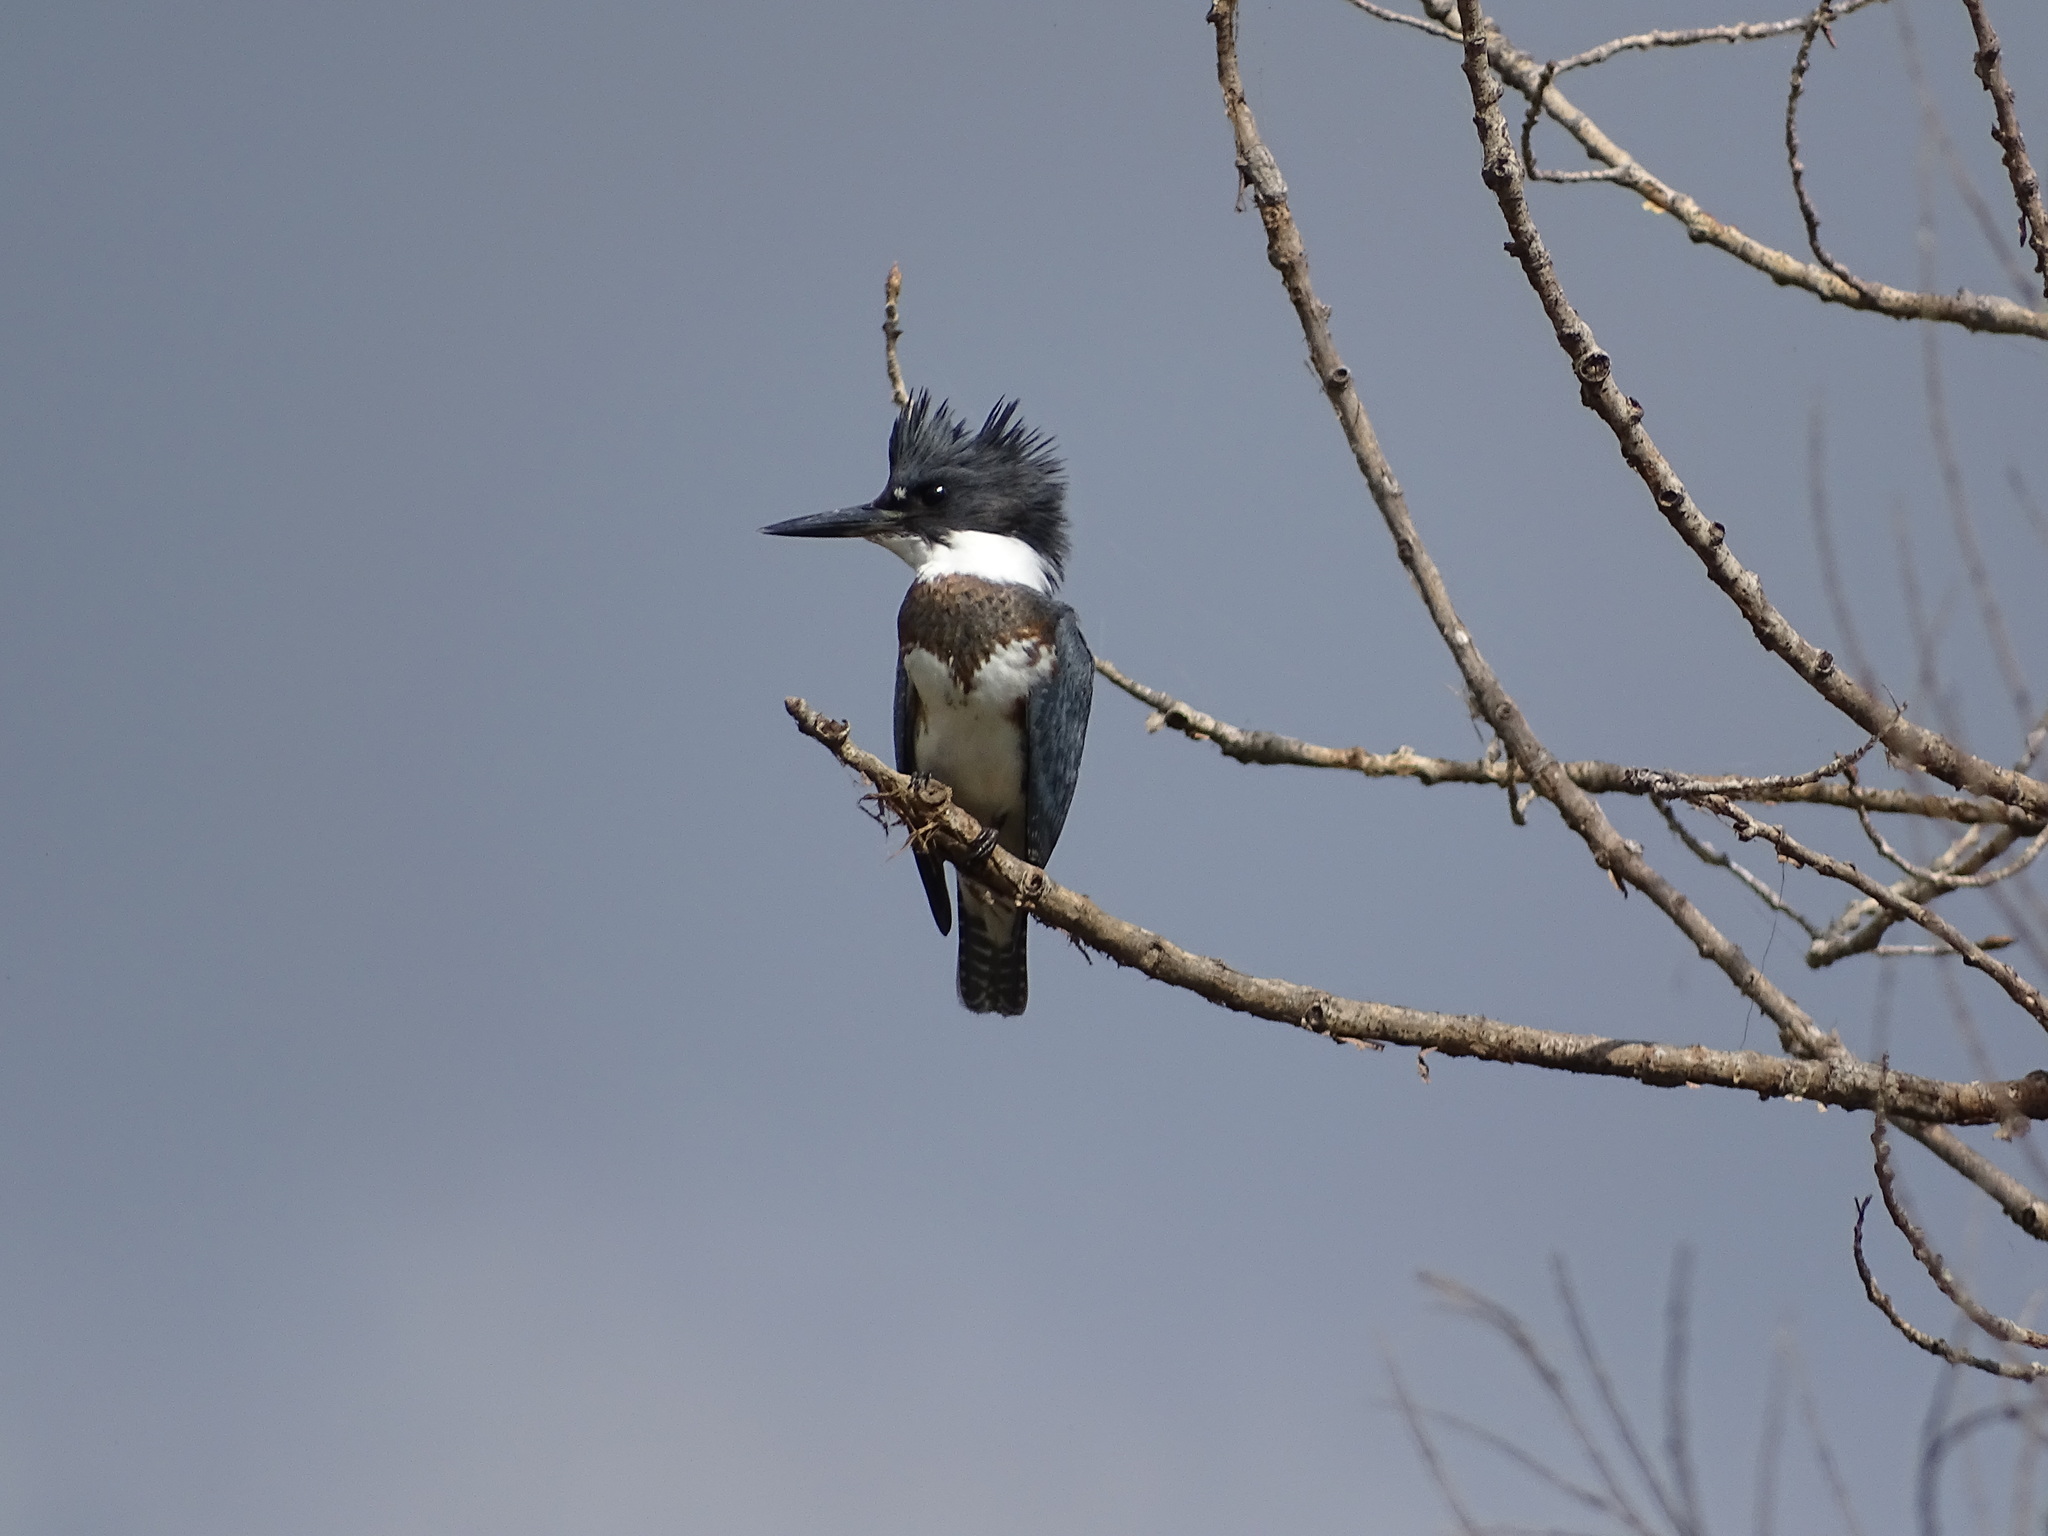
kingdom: Animalia
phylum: Chordata
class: Aves
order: Coraciiformes
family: Alcedinidae
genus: Megaceryle
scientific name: Megaceryle alcyon
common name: Belted kingfisher
